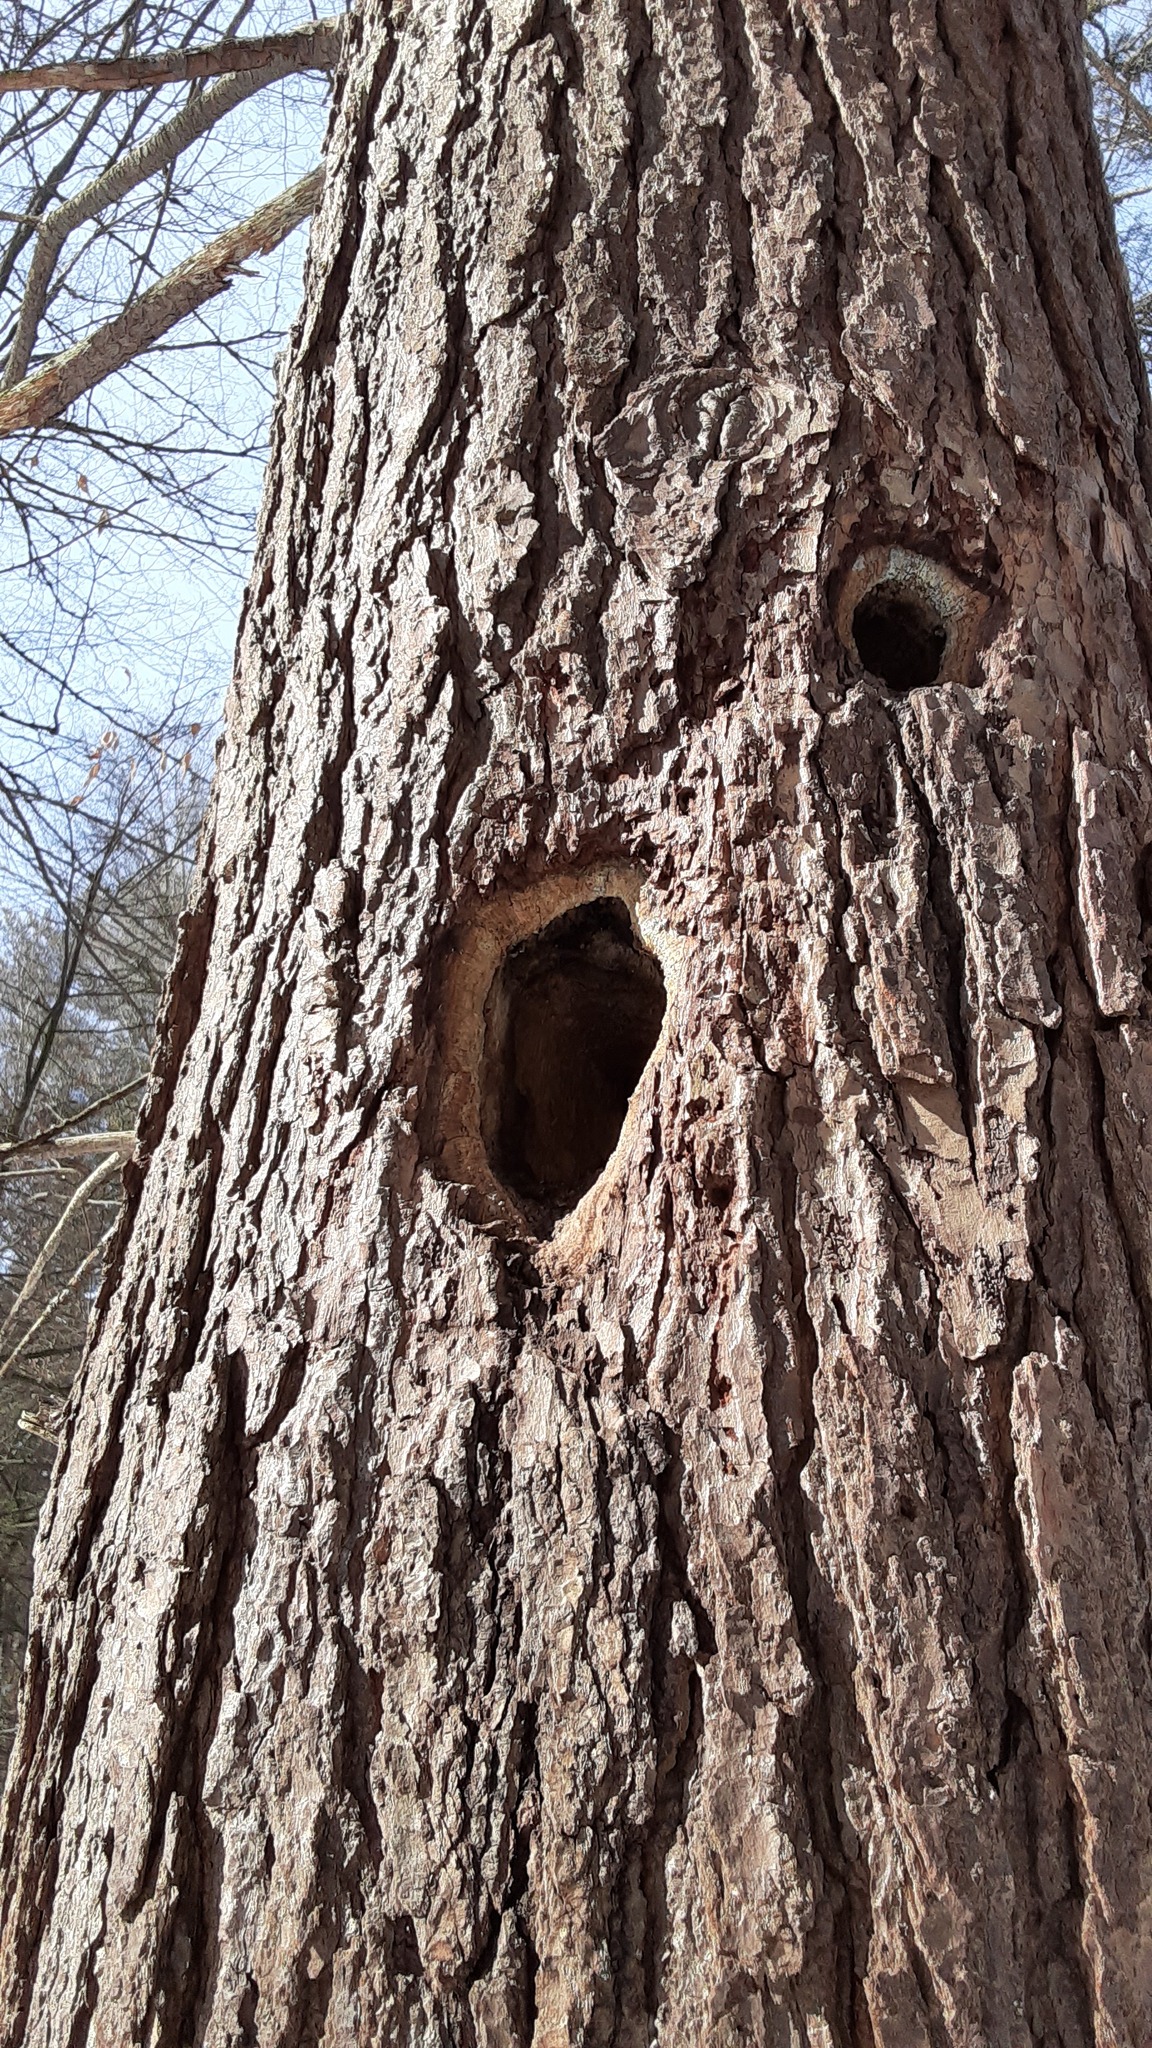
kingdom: Animalia
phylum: Chordata
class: Aves
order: Piciformes
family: Picidae
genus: Dryocopus
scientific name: Dryocopus pileatus
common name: Pileated woodpecker
